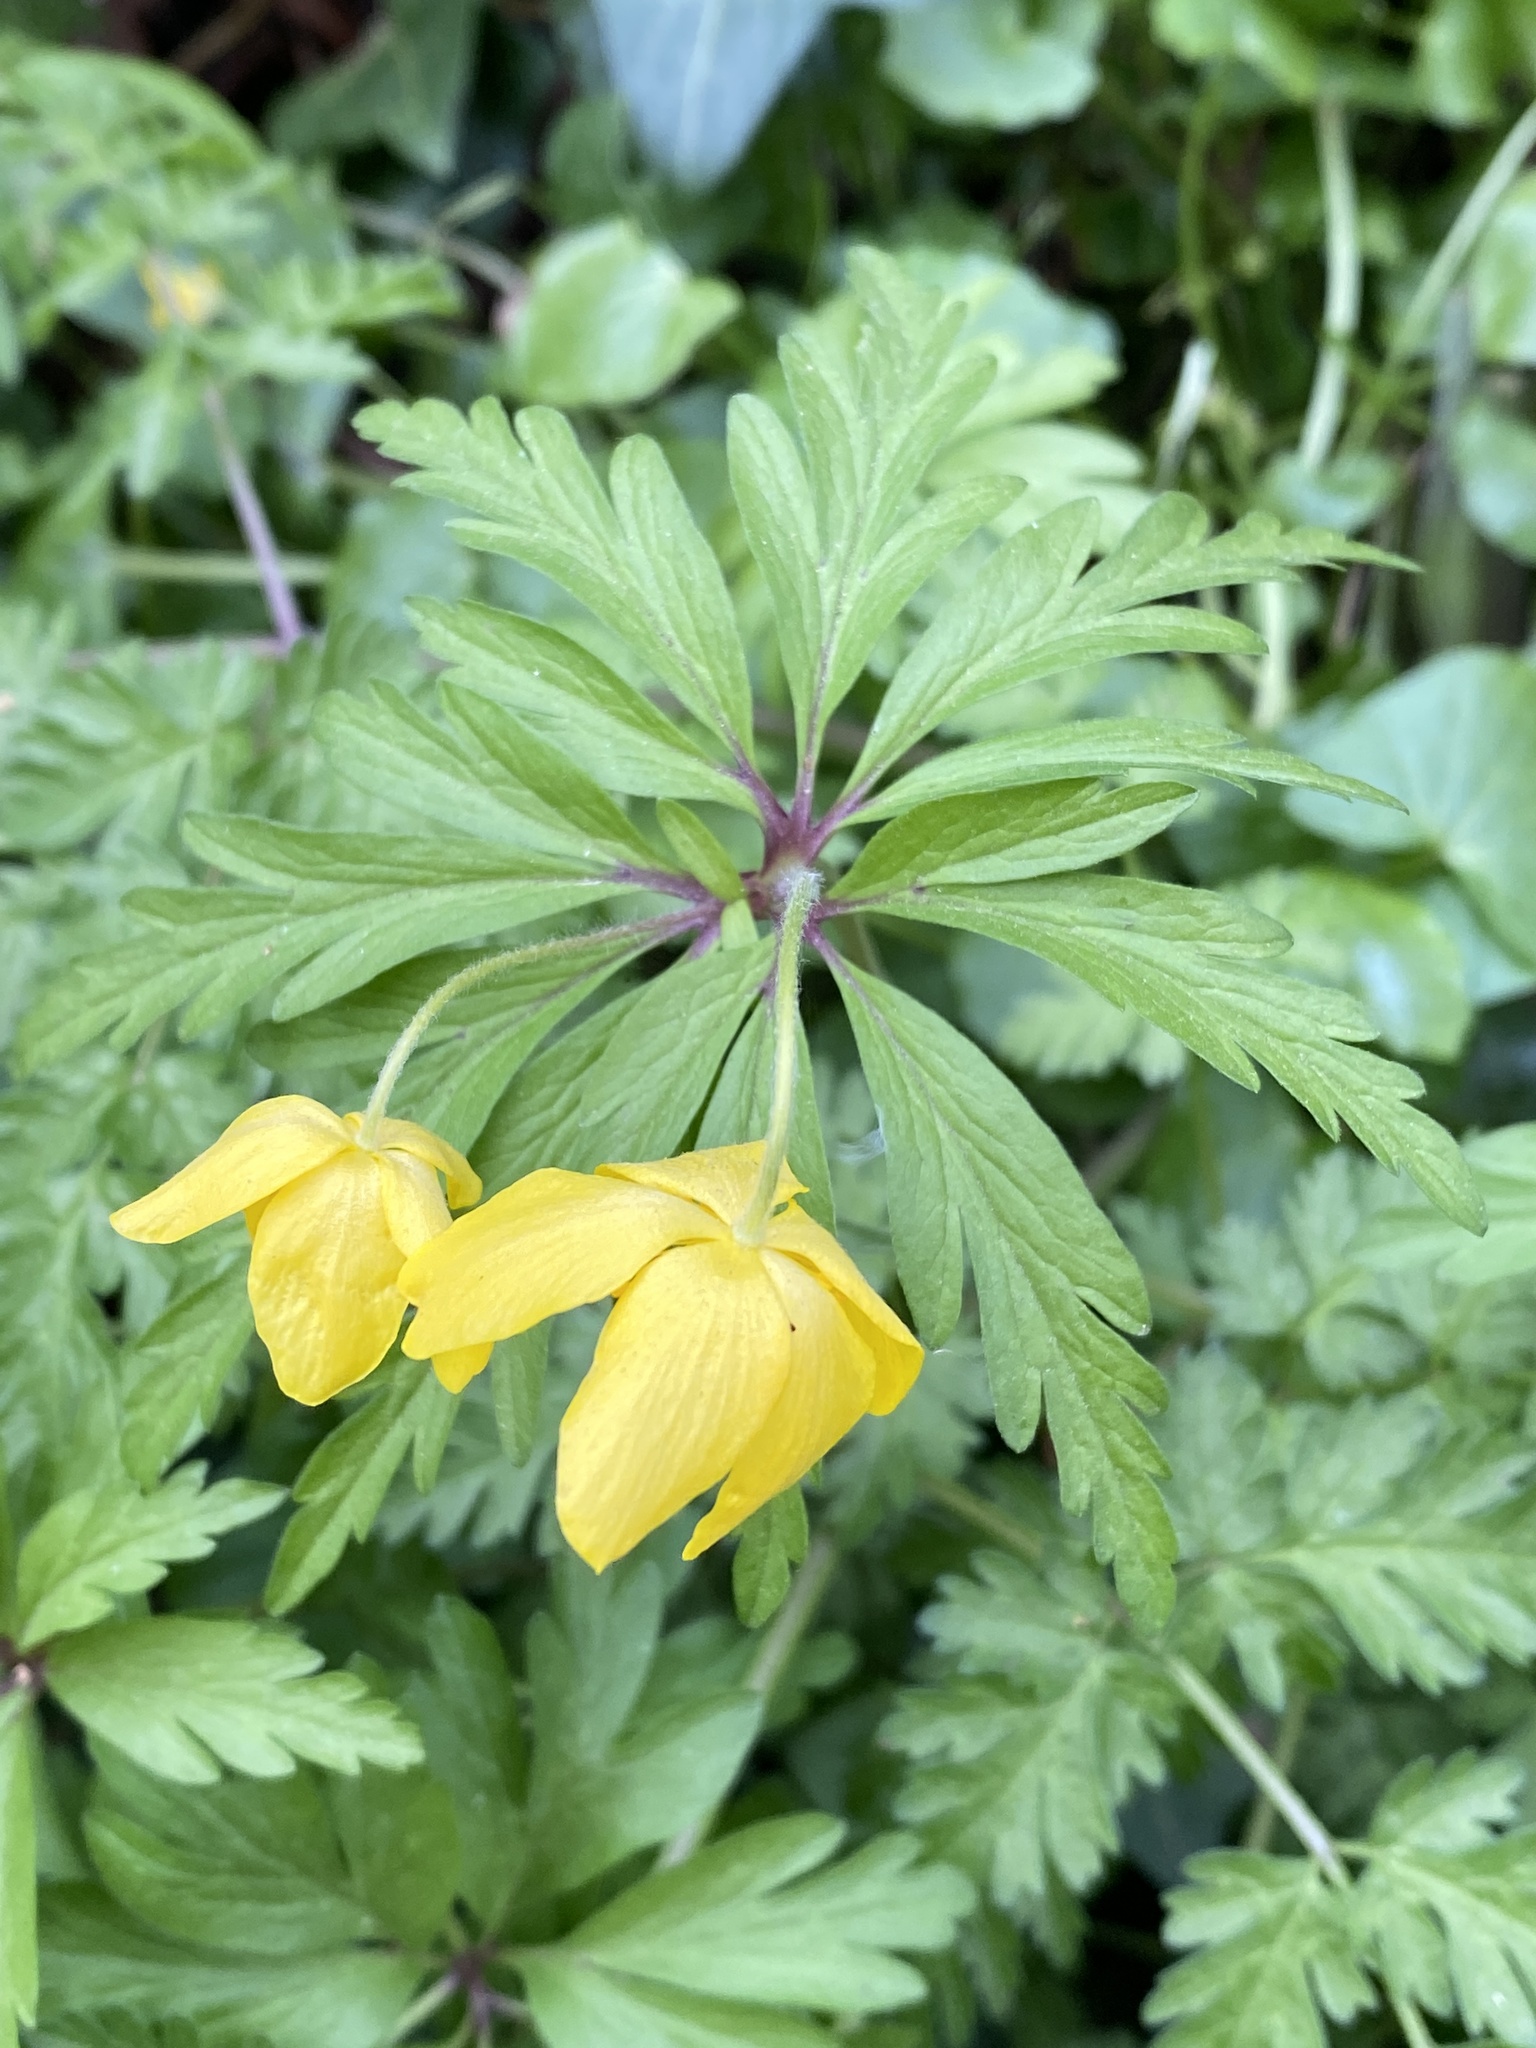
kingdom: Plantae
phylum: Tracheophyta
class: Magnoliopsida
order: Ranunculales
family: Ranunculaceae
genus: Anemone
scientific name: Anemone ranunculoides
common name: Yellow anemone
